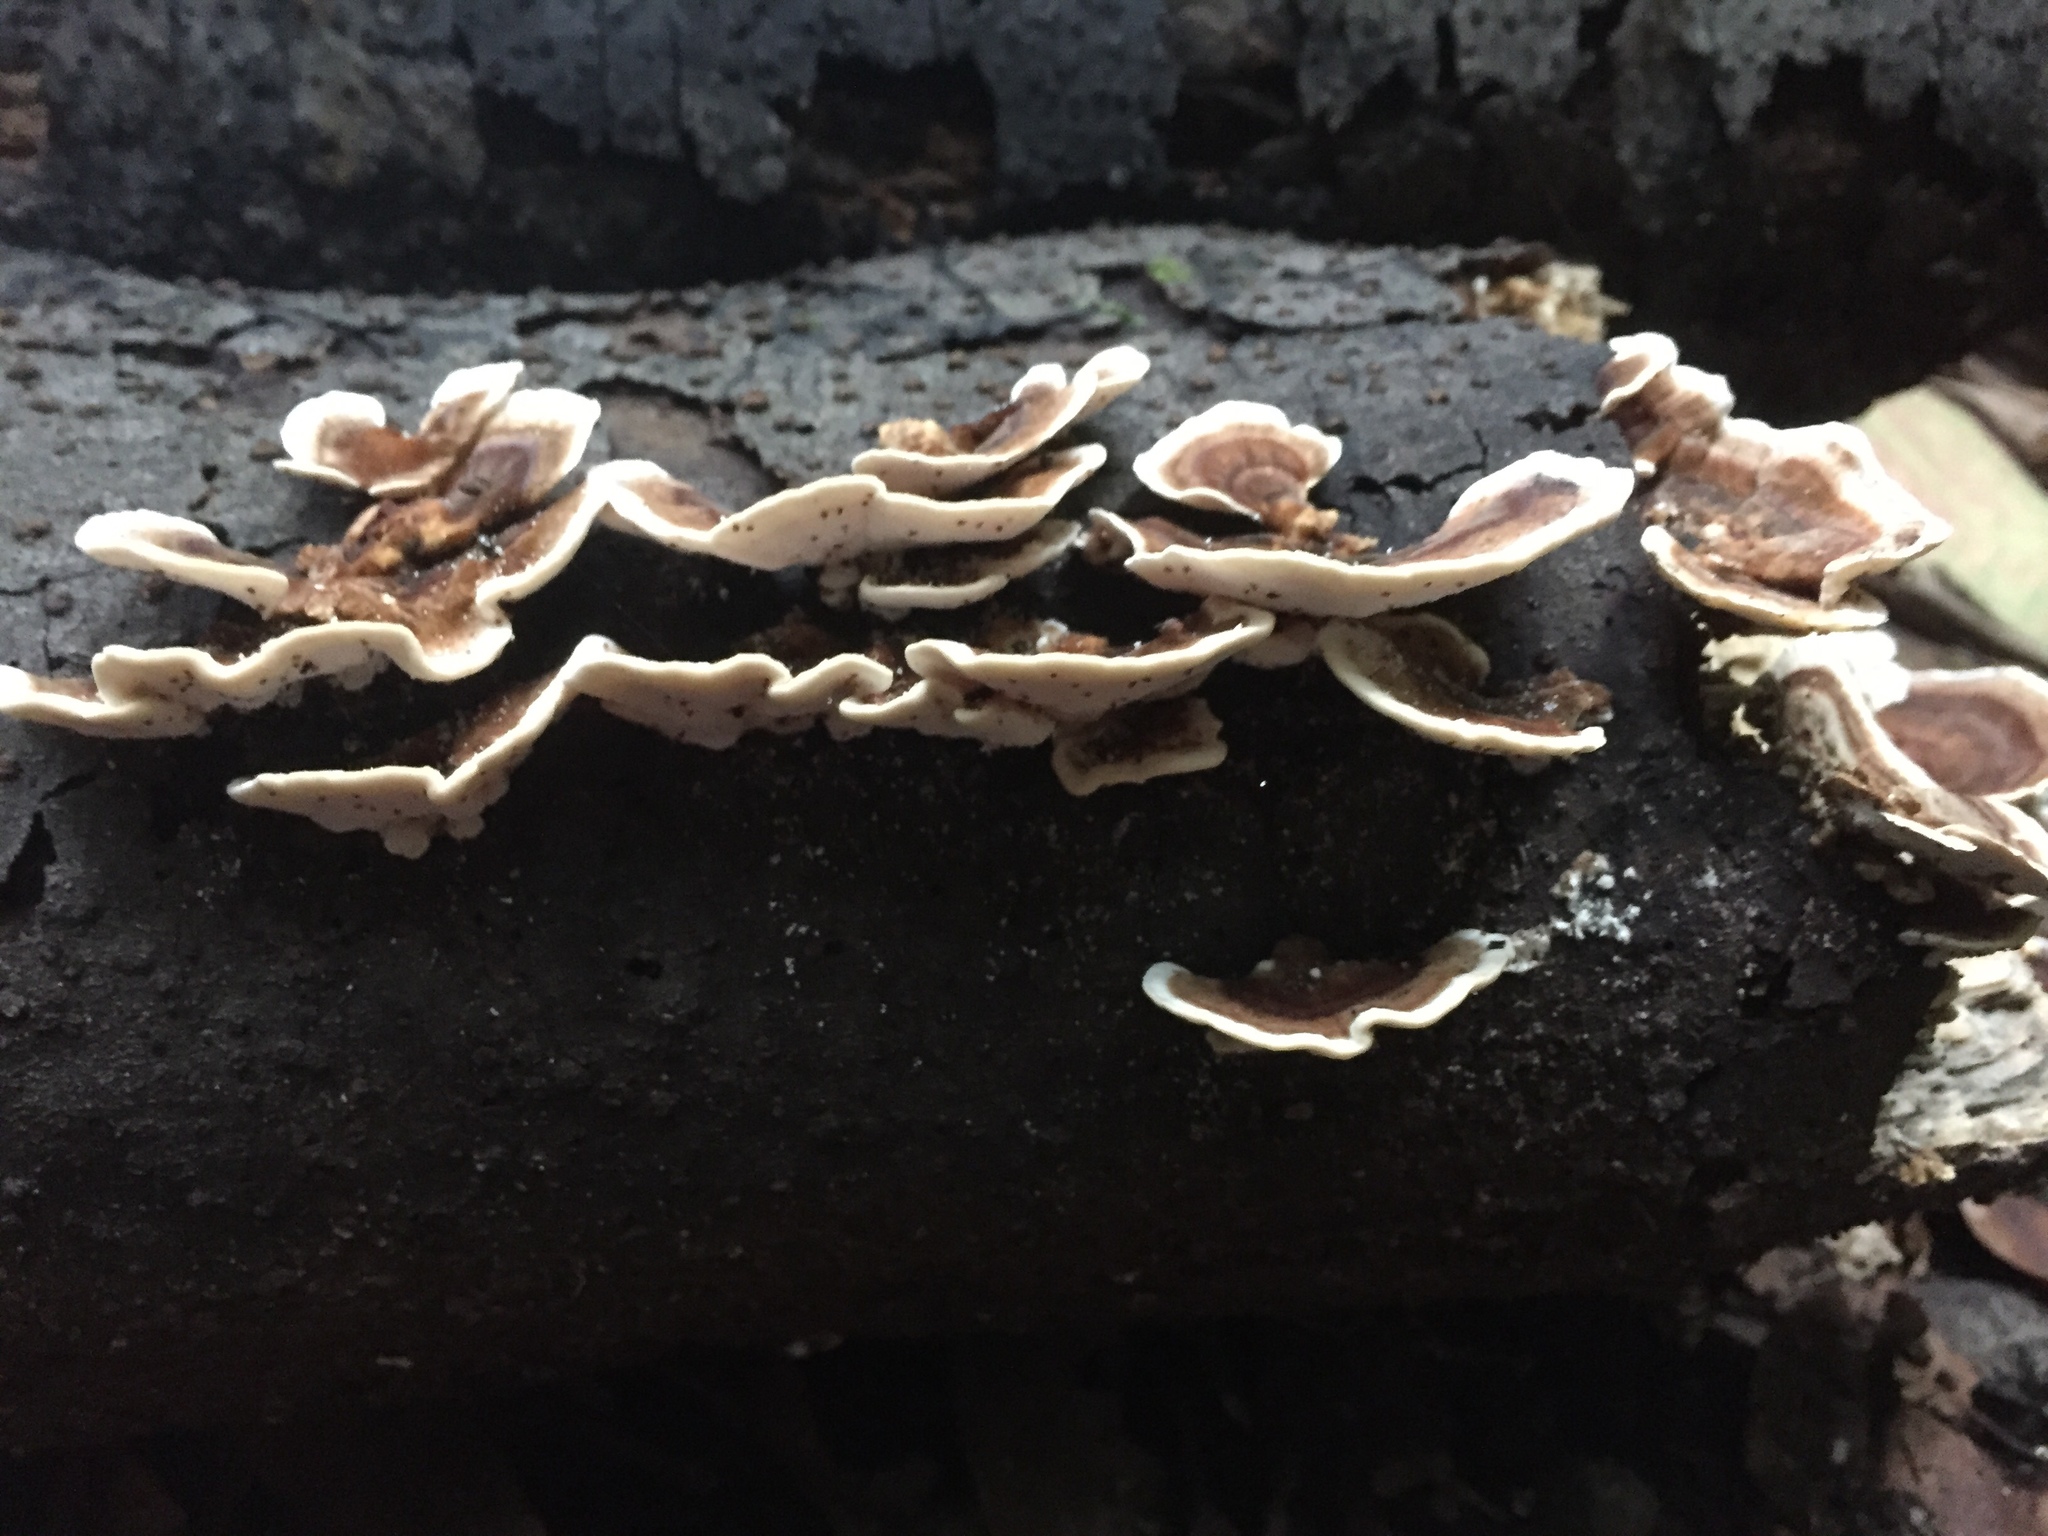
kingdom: Fungi
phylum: Basidiomycota
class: Agaricomycetes
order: Polyporales
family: Polyporaceae
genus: Trametes
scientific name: Trametes versicolor
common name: Turkeytail
